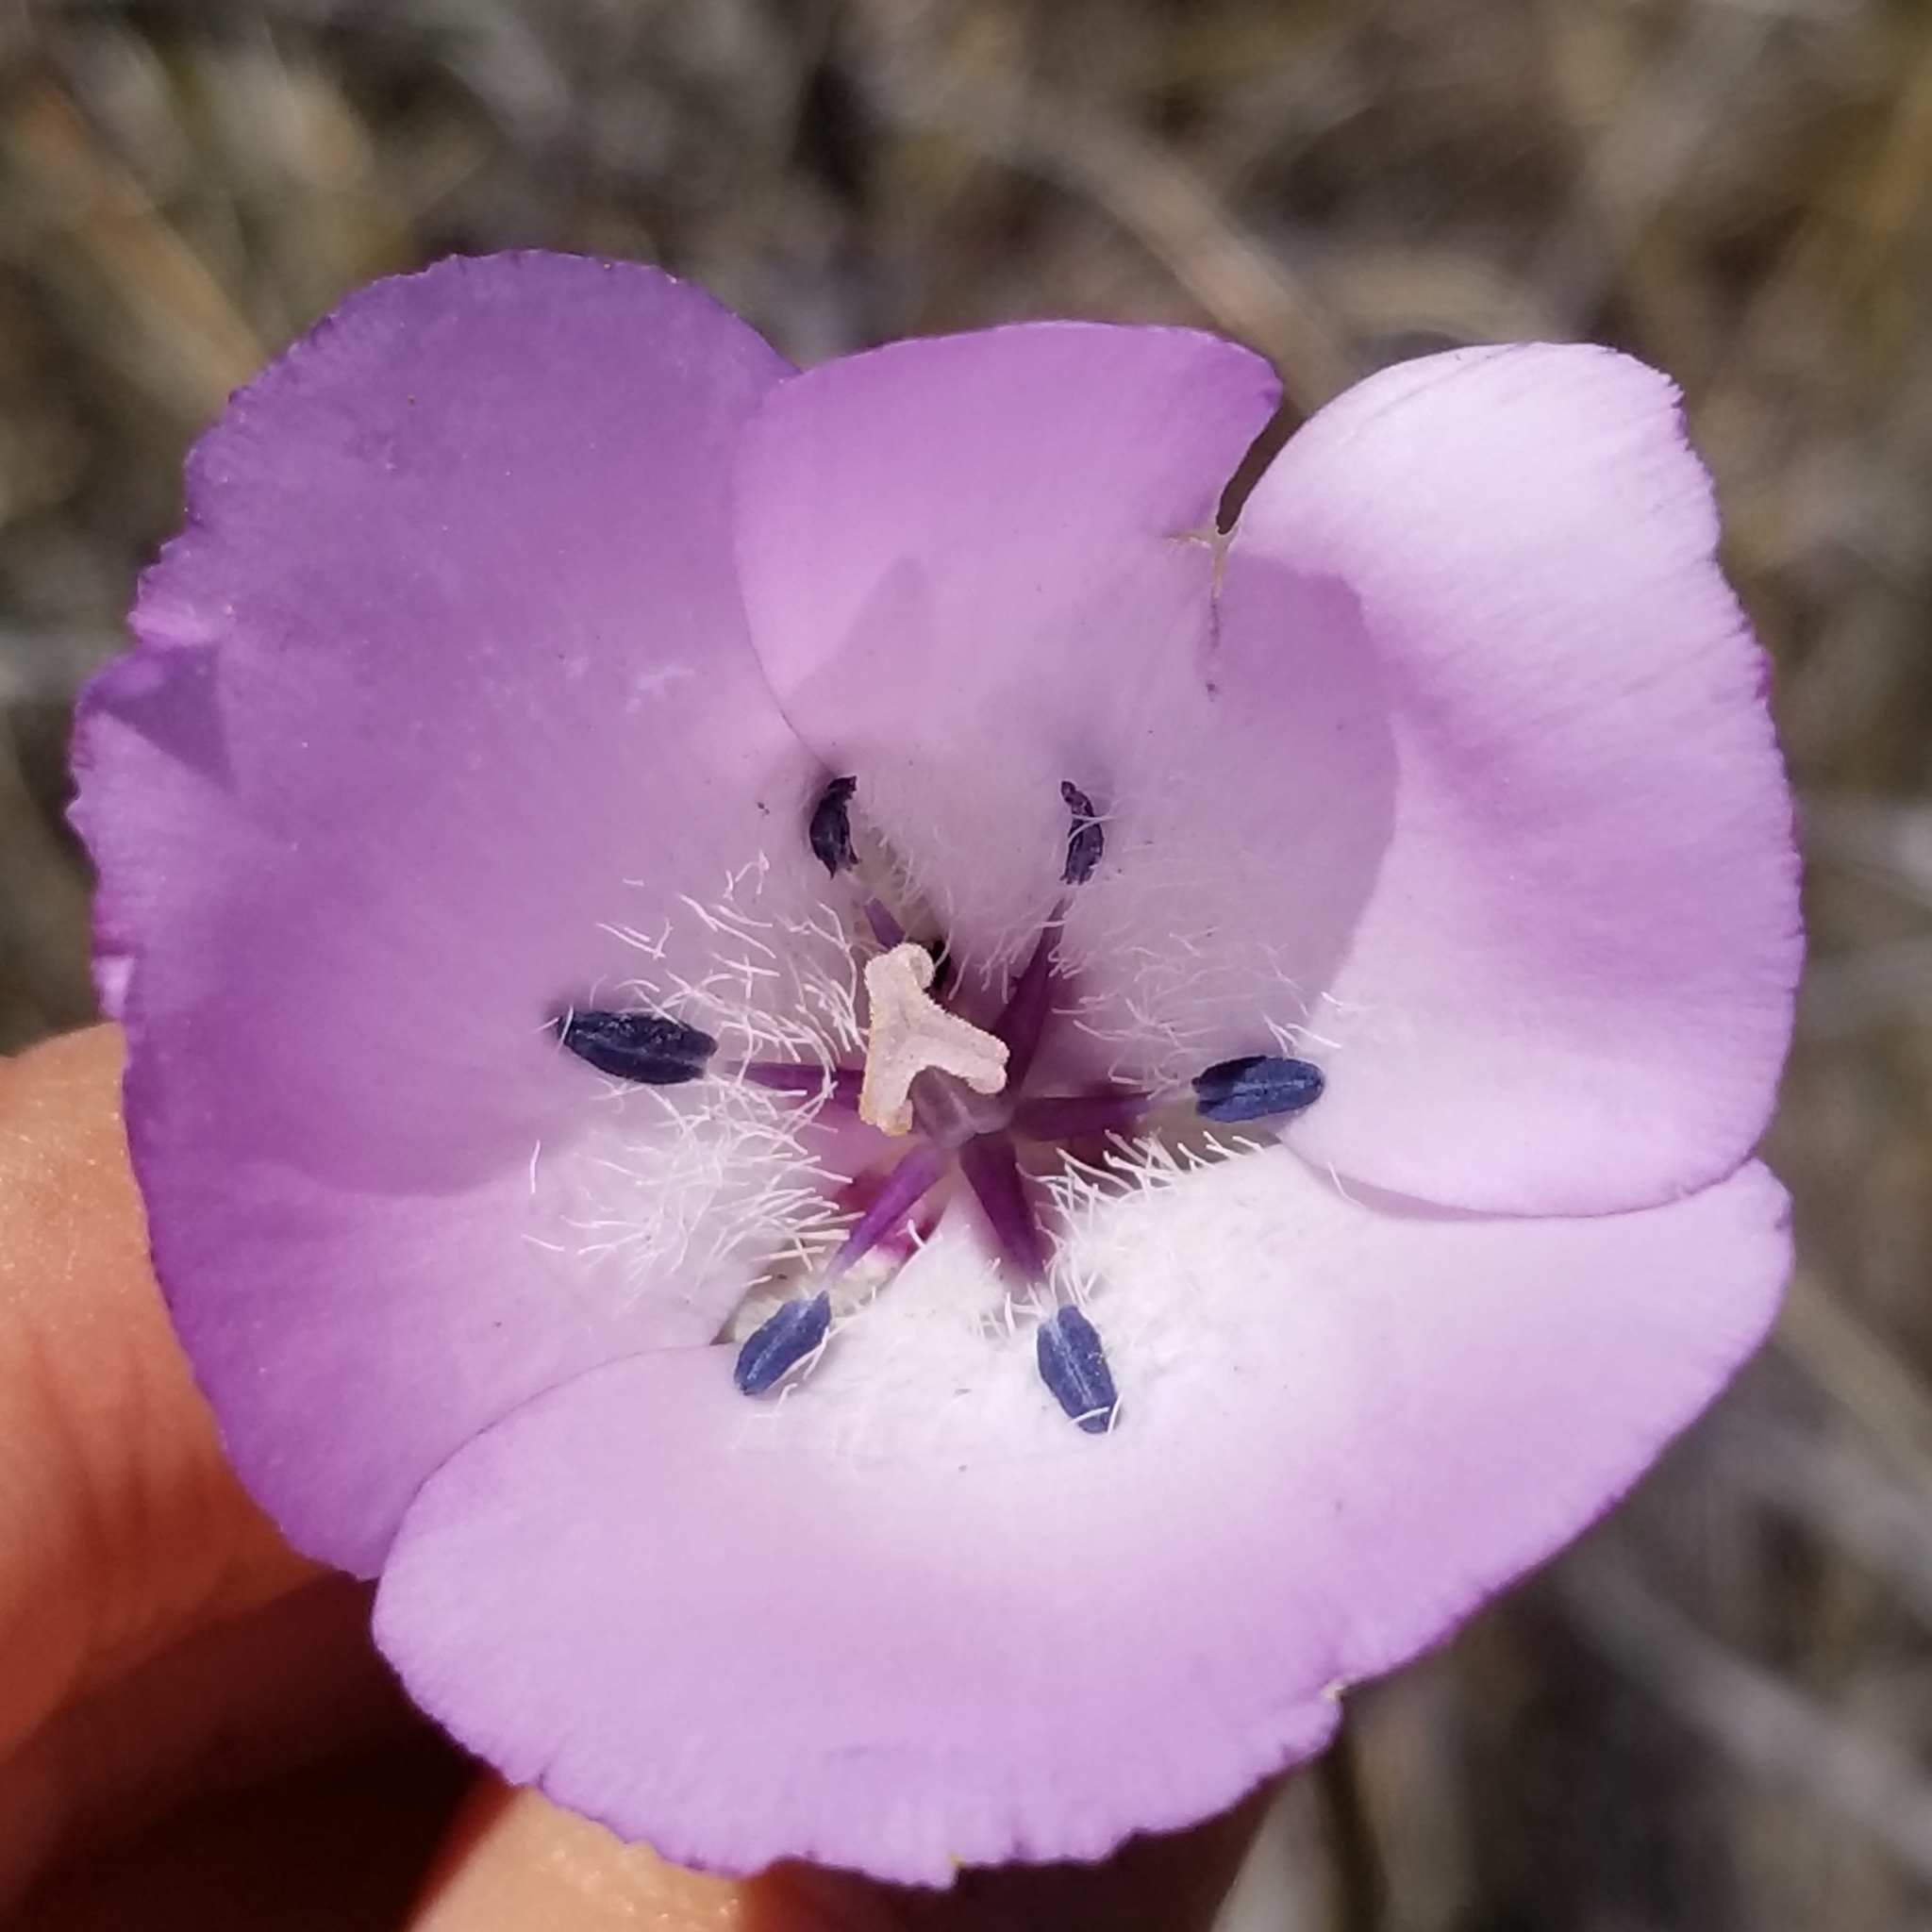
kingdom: Plantae
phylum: Tracheophyta
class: Liliopsida
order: Liliales
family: Liliaceae
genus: Calochortus
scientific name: Calochortus splendens
